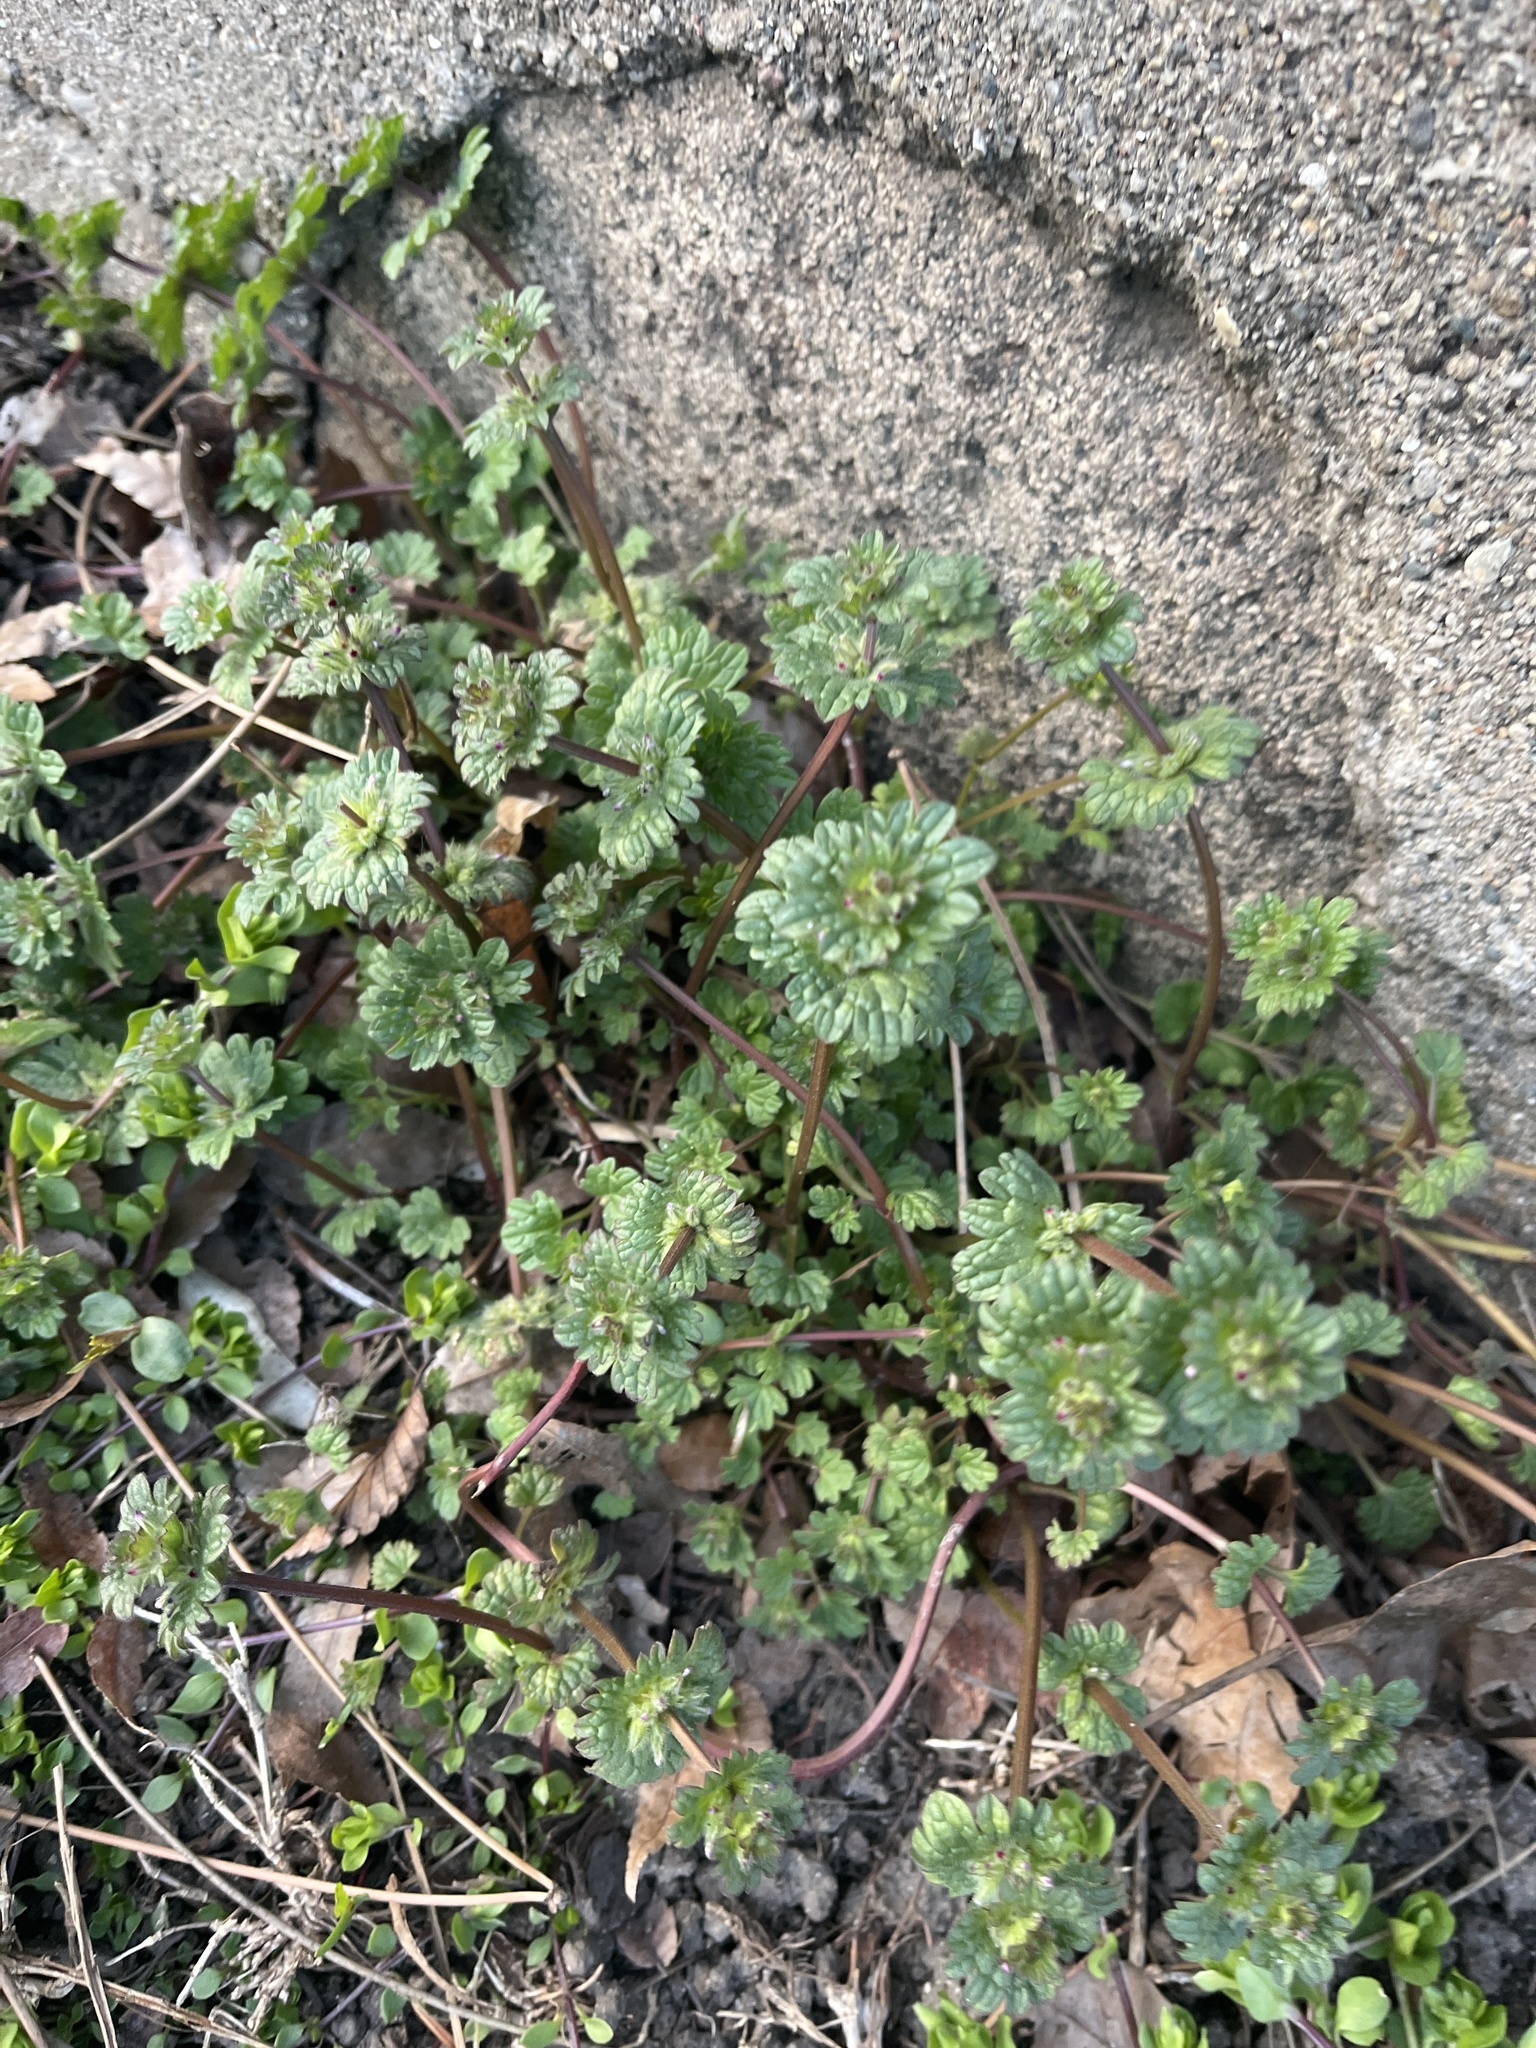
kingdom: Plantae
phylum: Tracheophyta
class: Magnoliopsida
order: Lamiales
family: Lamiaceae
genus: Lamium
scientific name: Lamium amplexicaule
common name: Henbit dead-nettle
